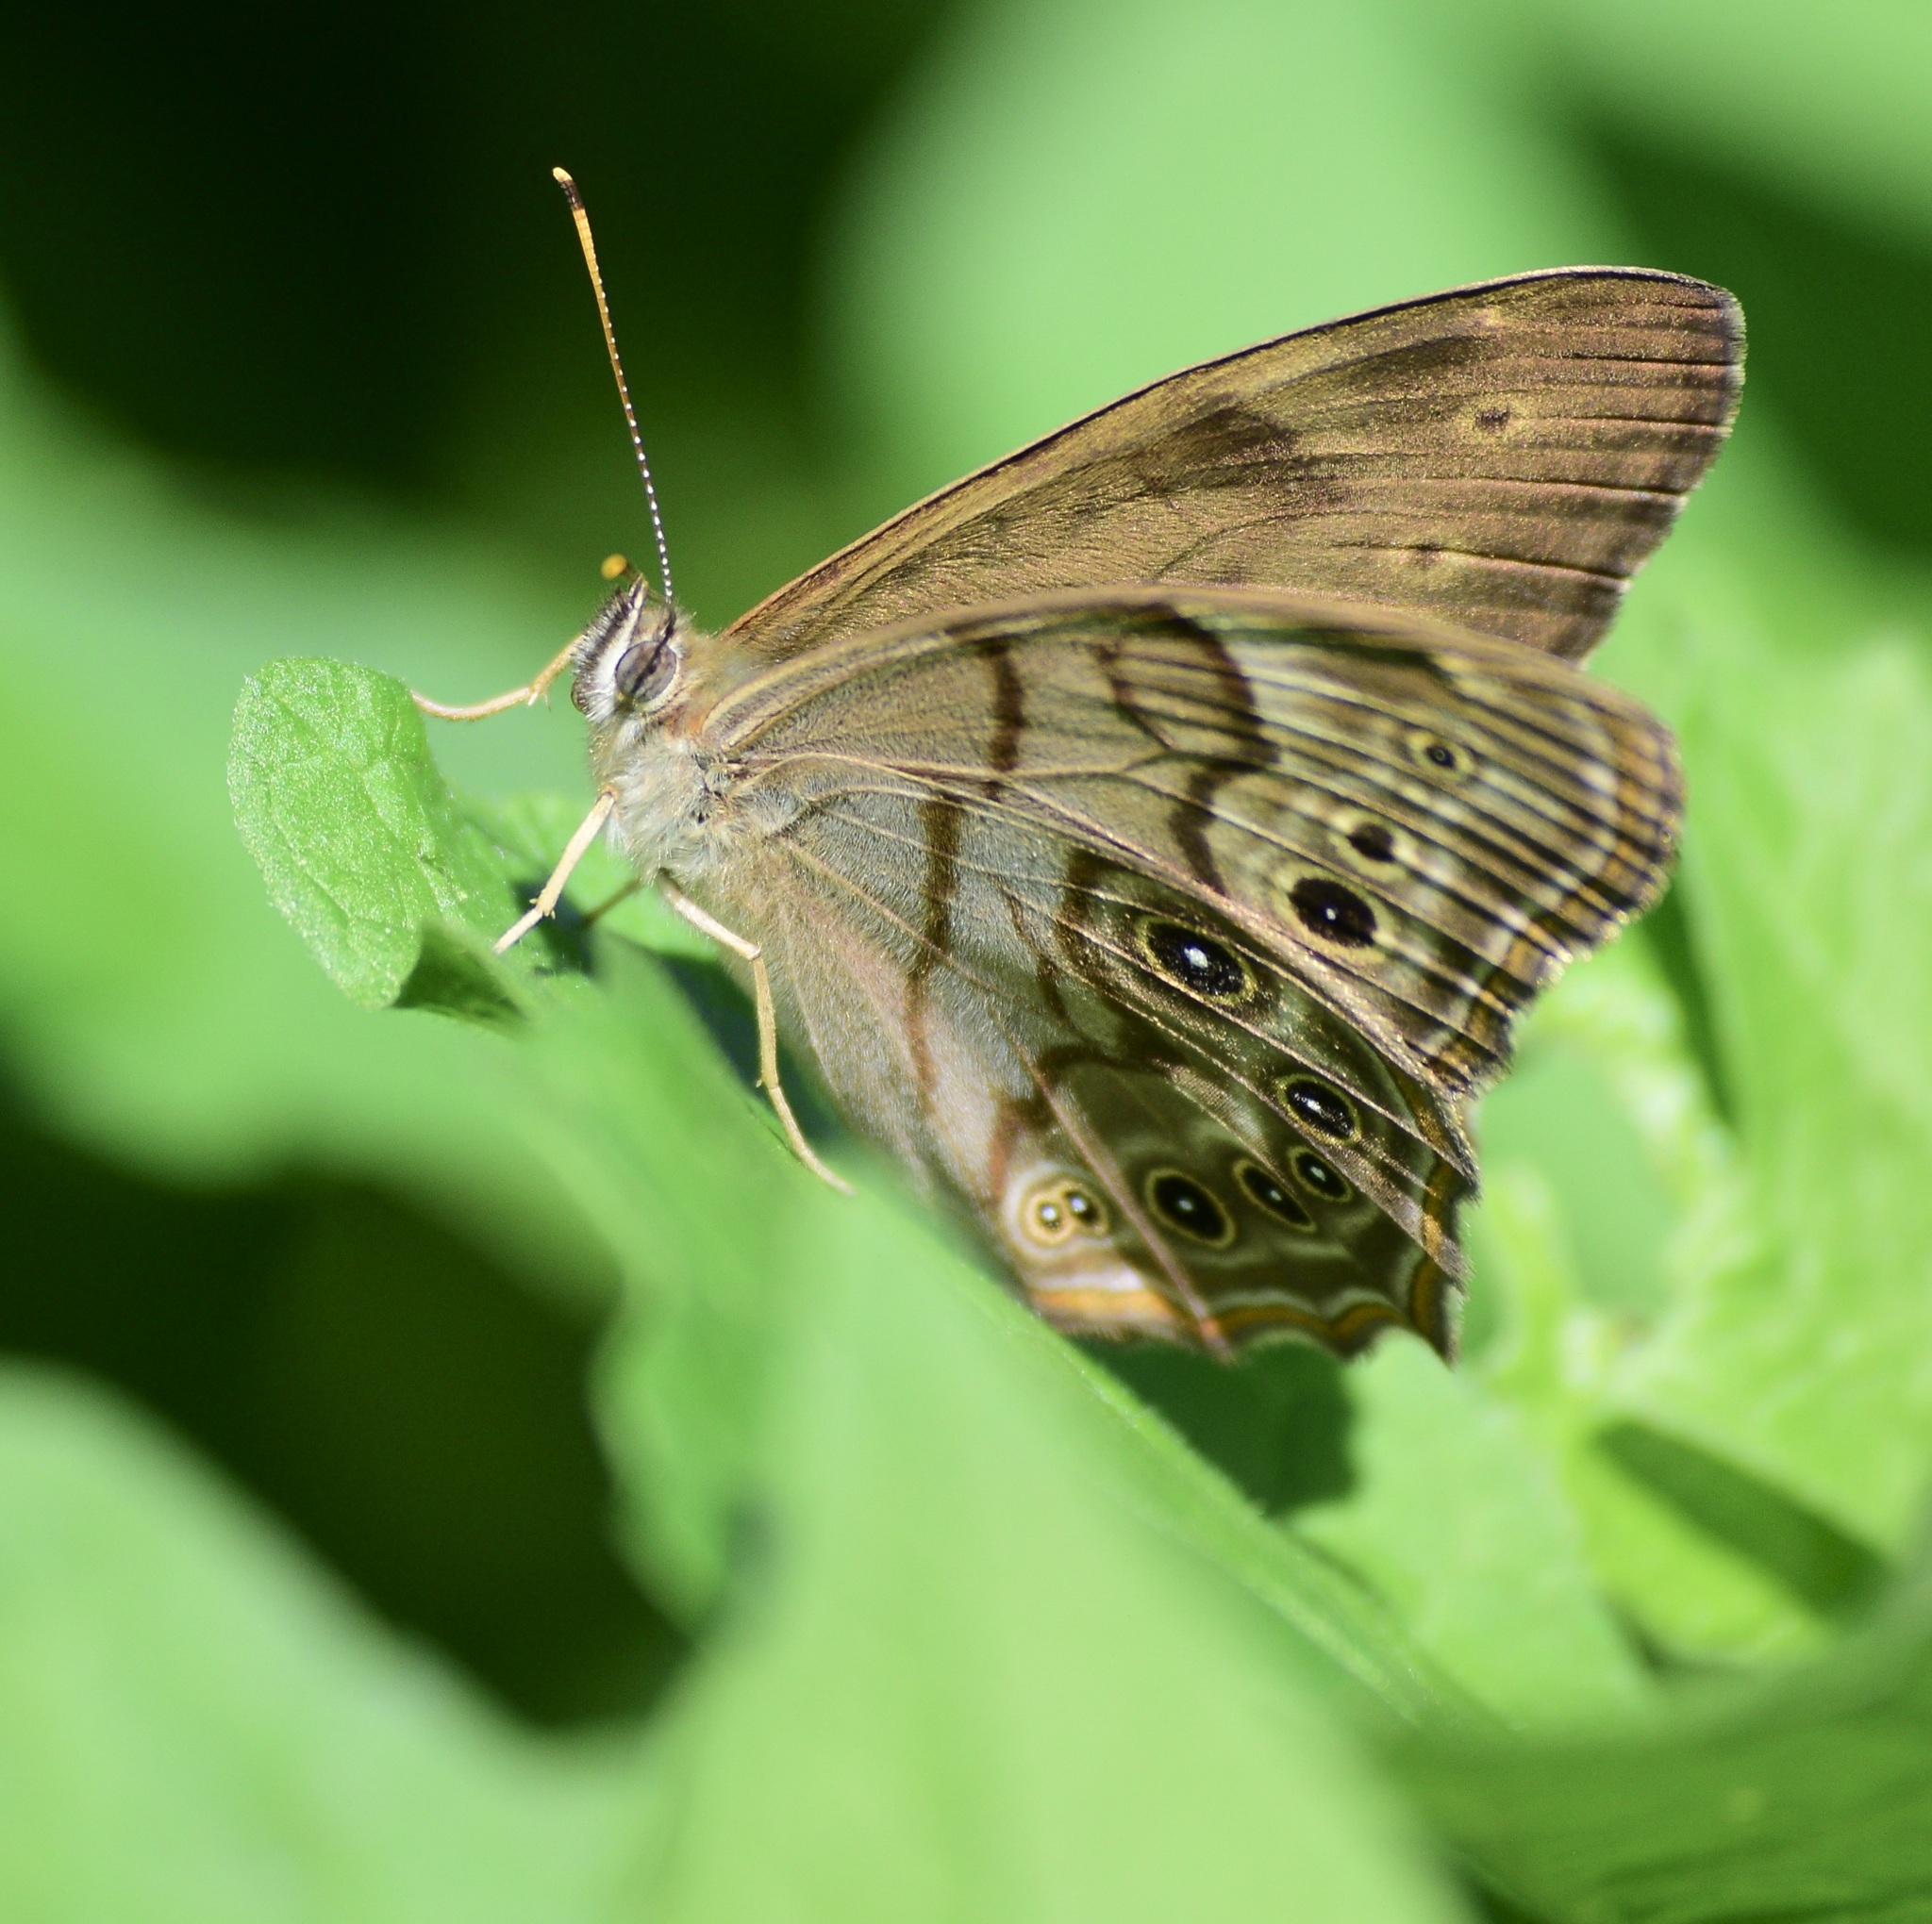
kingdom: Animalia
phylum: Arthropoda
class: Insecta
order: Lepidoptera
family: Nymphalidae
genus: Lethe
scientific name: Lethe anthedon
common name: Northern pearly-eye
